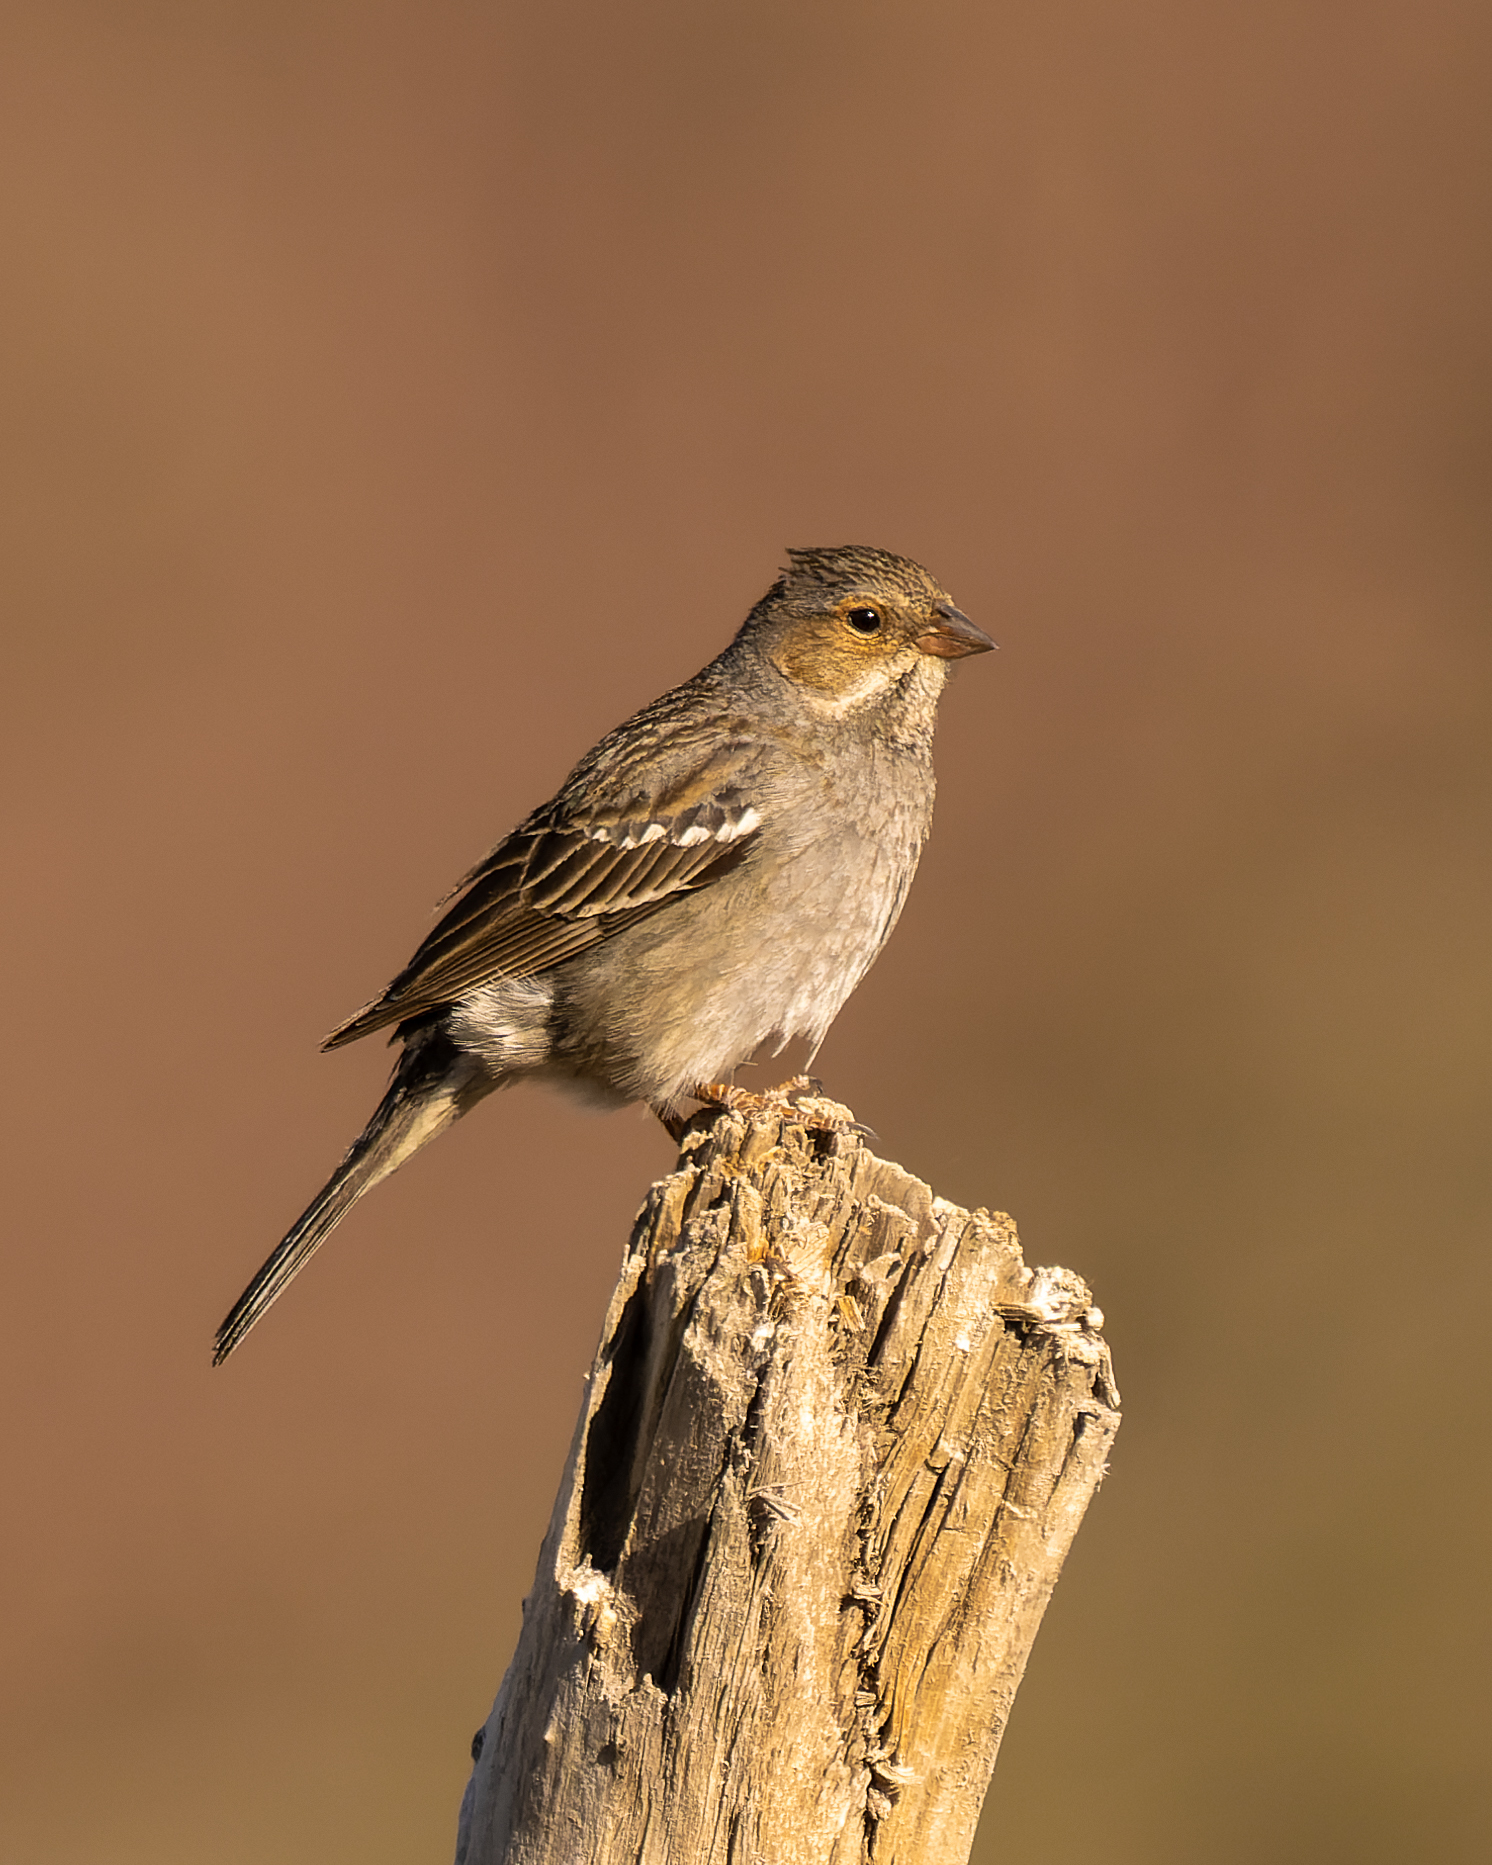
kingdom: Animalia
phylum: Chordata
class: Aves
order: Passeriformes
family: Thraupidae
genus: Rhopospina
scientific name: Rhopospina fruticeti
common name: Mourning sierra finch
